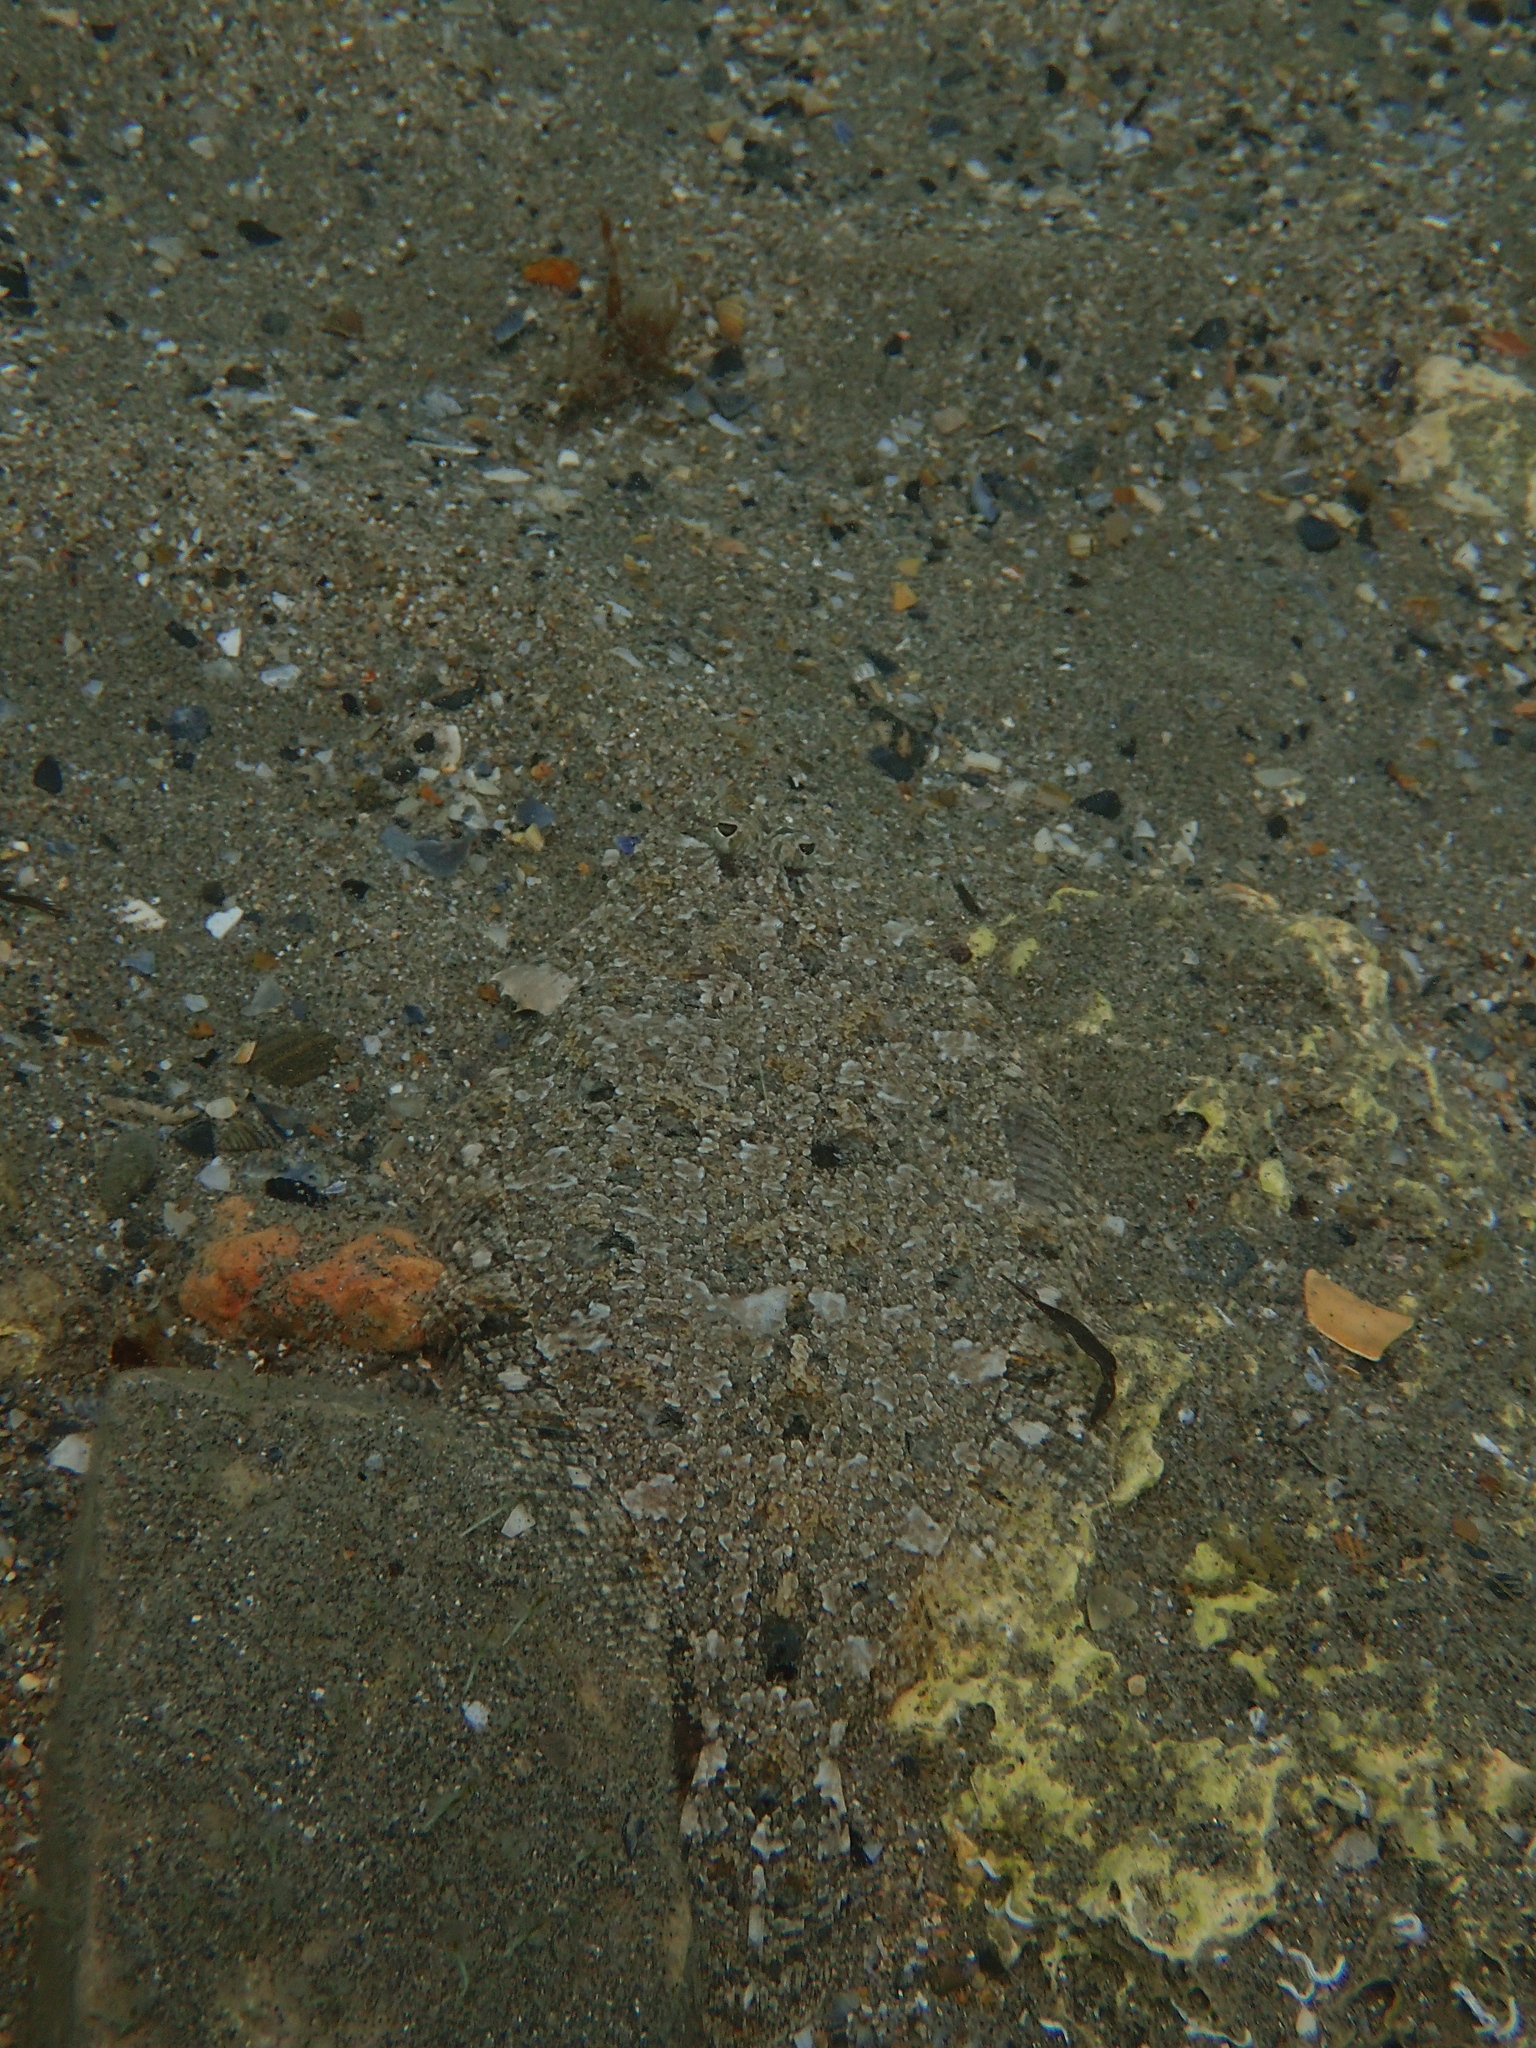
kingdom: Animalia
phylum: Chordata
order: Pleuronectiformes
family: Bothidae
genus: Arnoglossus
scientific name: Arnoglossus thori
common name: Thor's scaldfish
